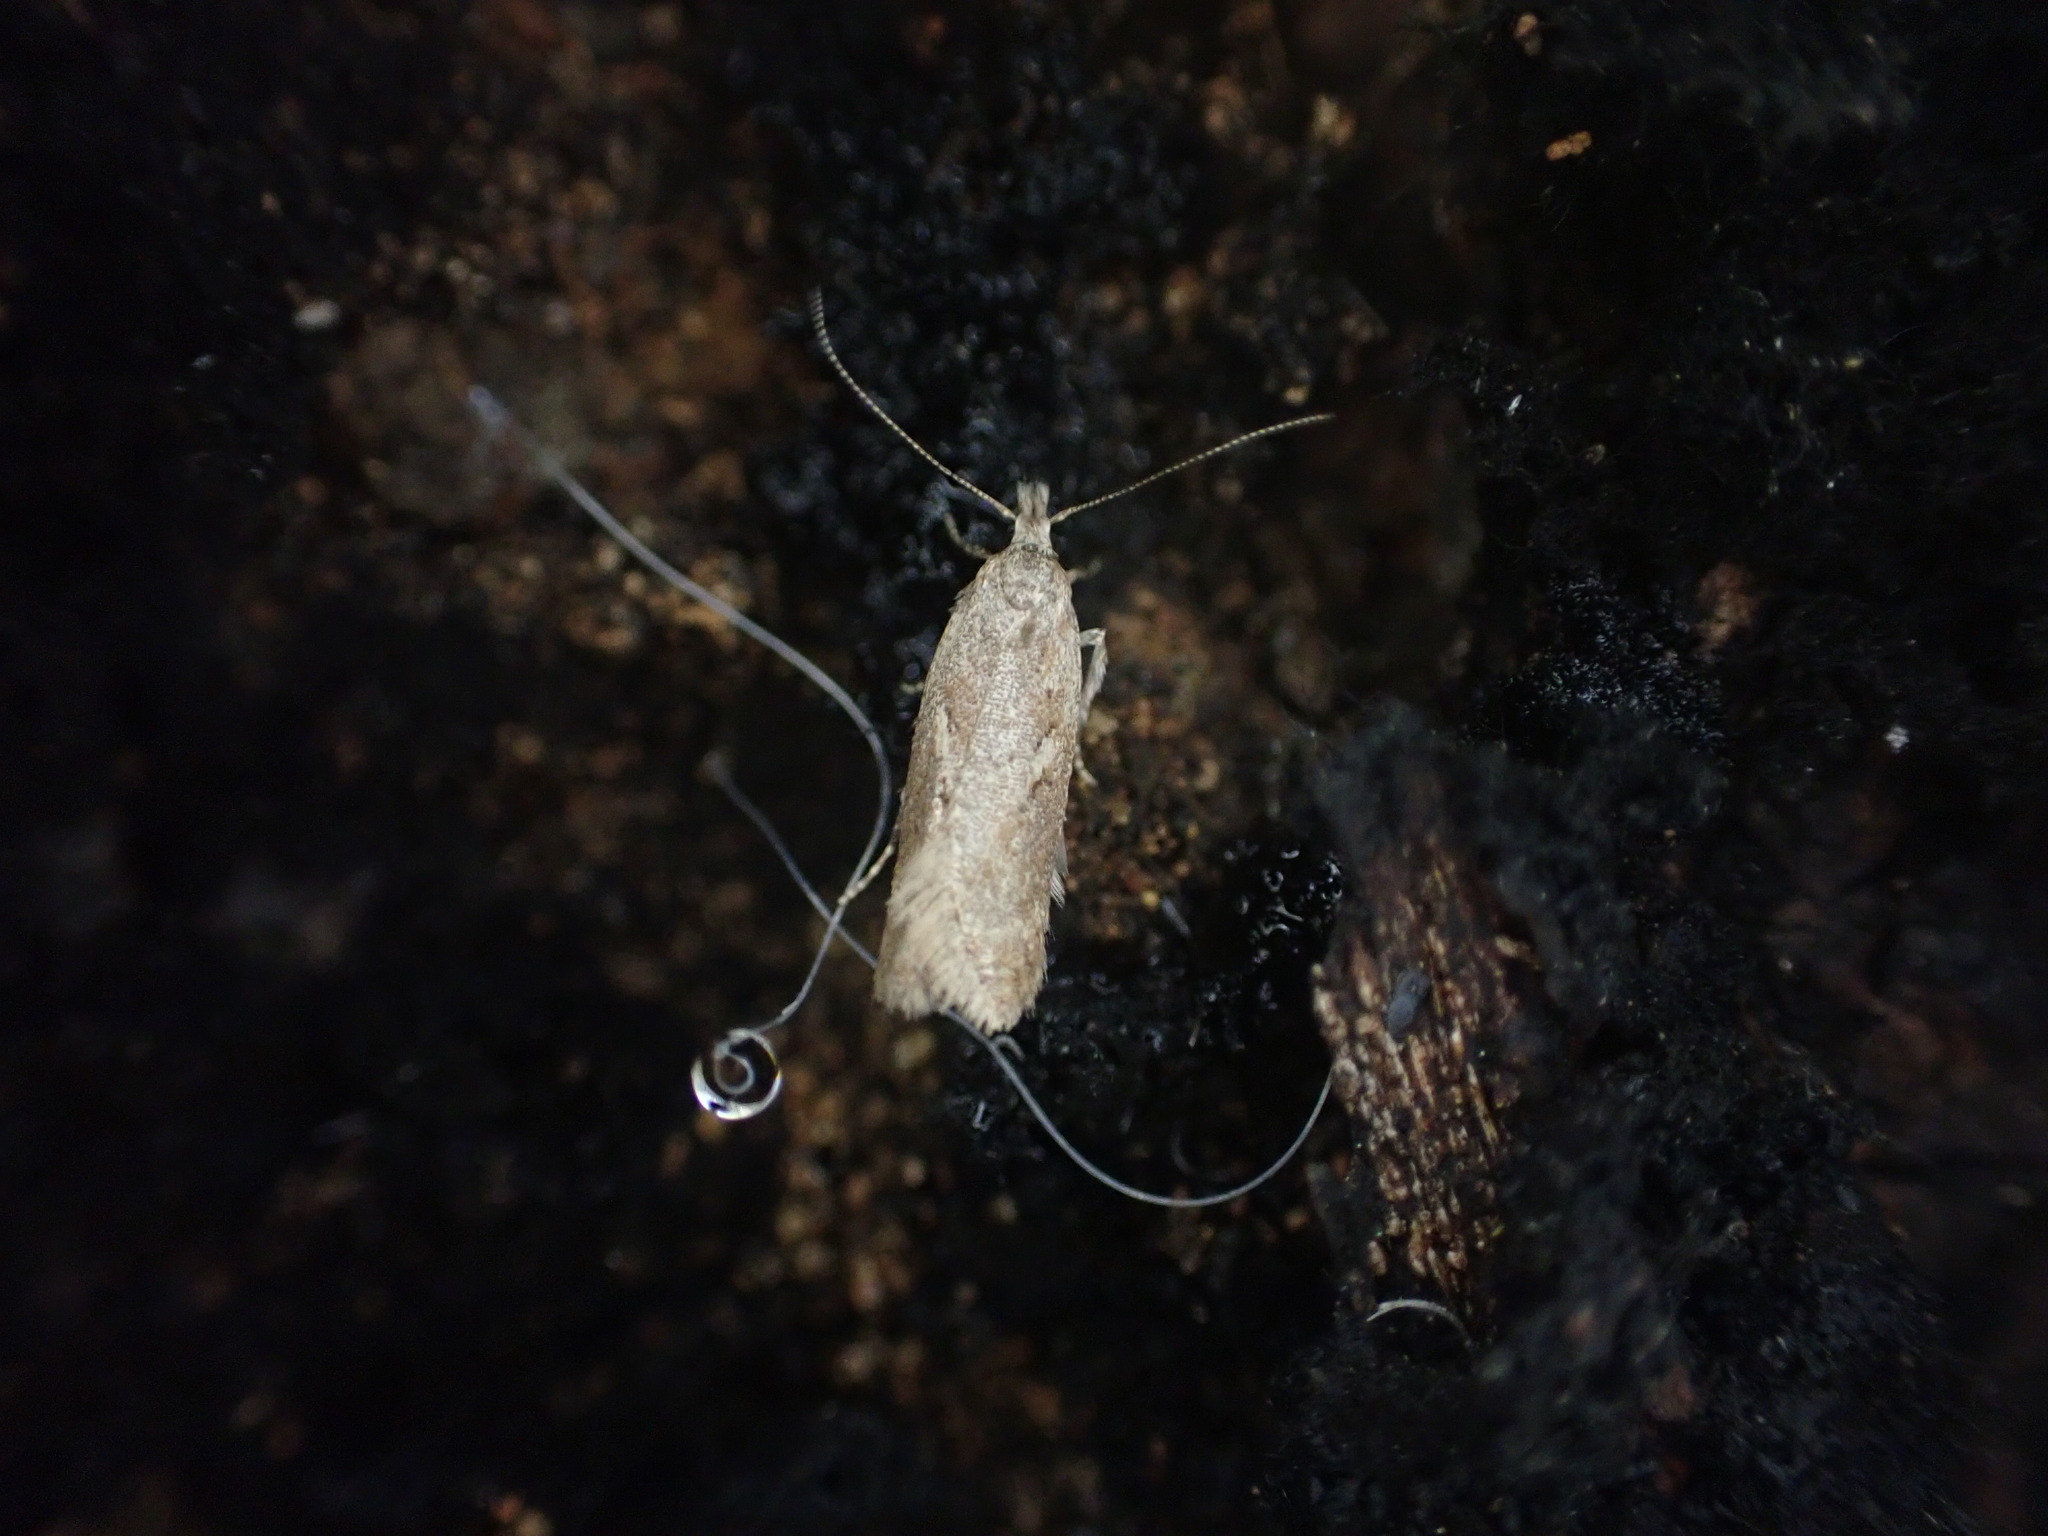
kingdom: Animalia
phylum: Arthropoda
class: Insecta
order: Lepidoptera
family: Oecophoridae
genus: Thamnosara
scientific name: Thamnosara sublitella
